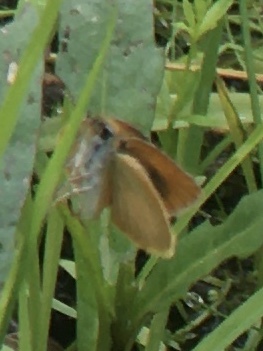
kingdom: Animalia
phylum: Arthropoda
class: Insecta
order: Lepidoptera
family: Hesperiidae
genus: Ancyloxypha
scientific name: Ancyloxypha numitor
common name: Least skipper
